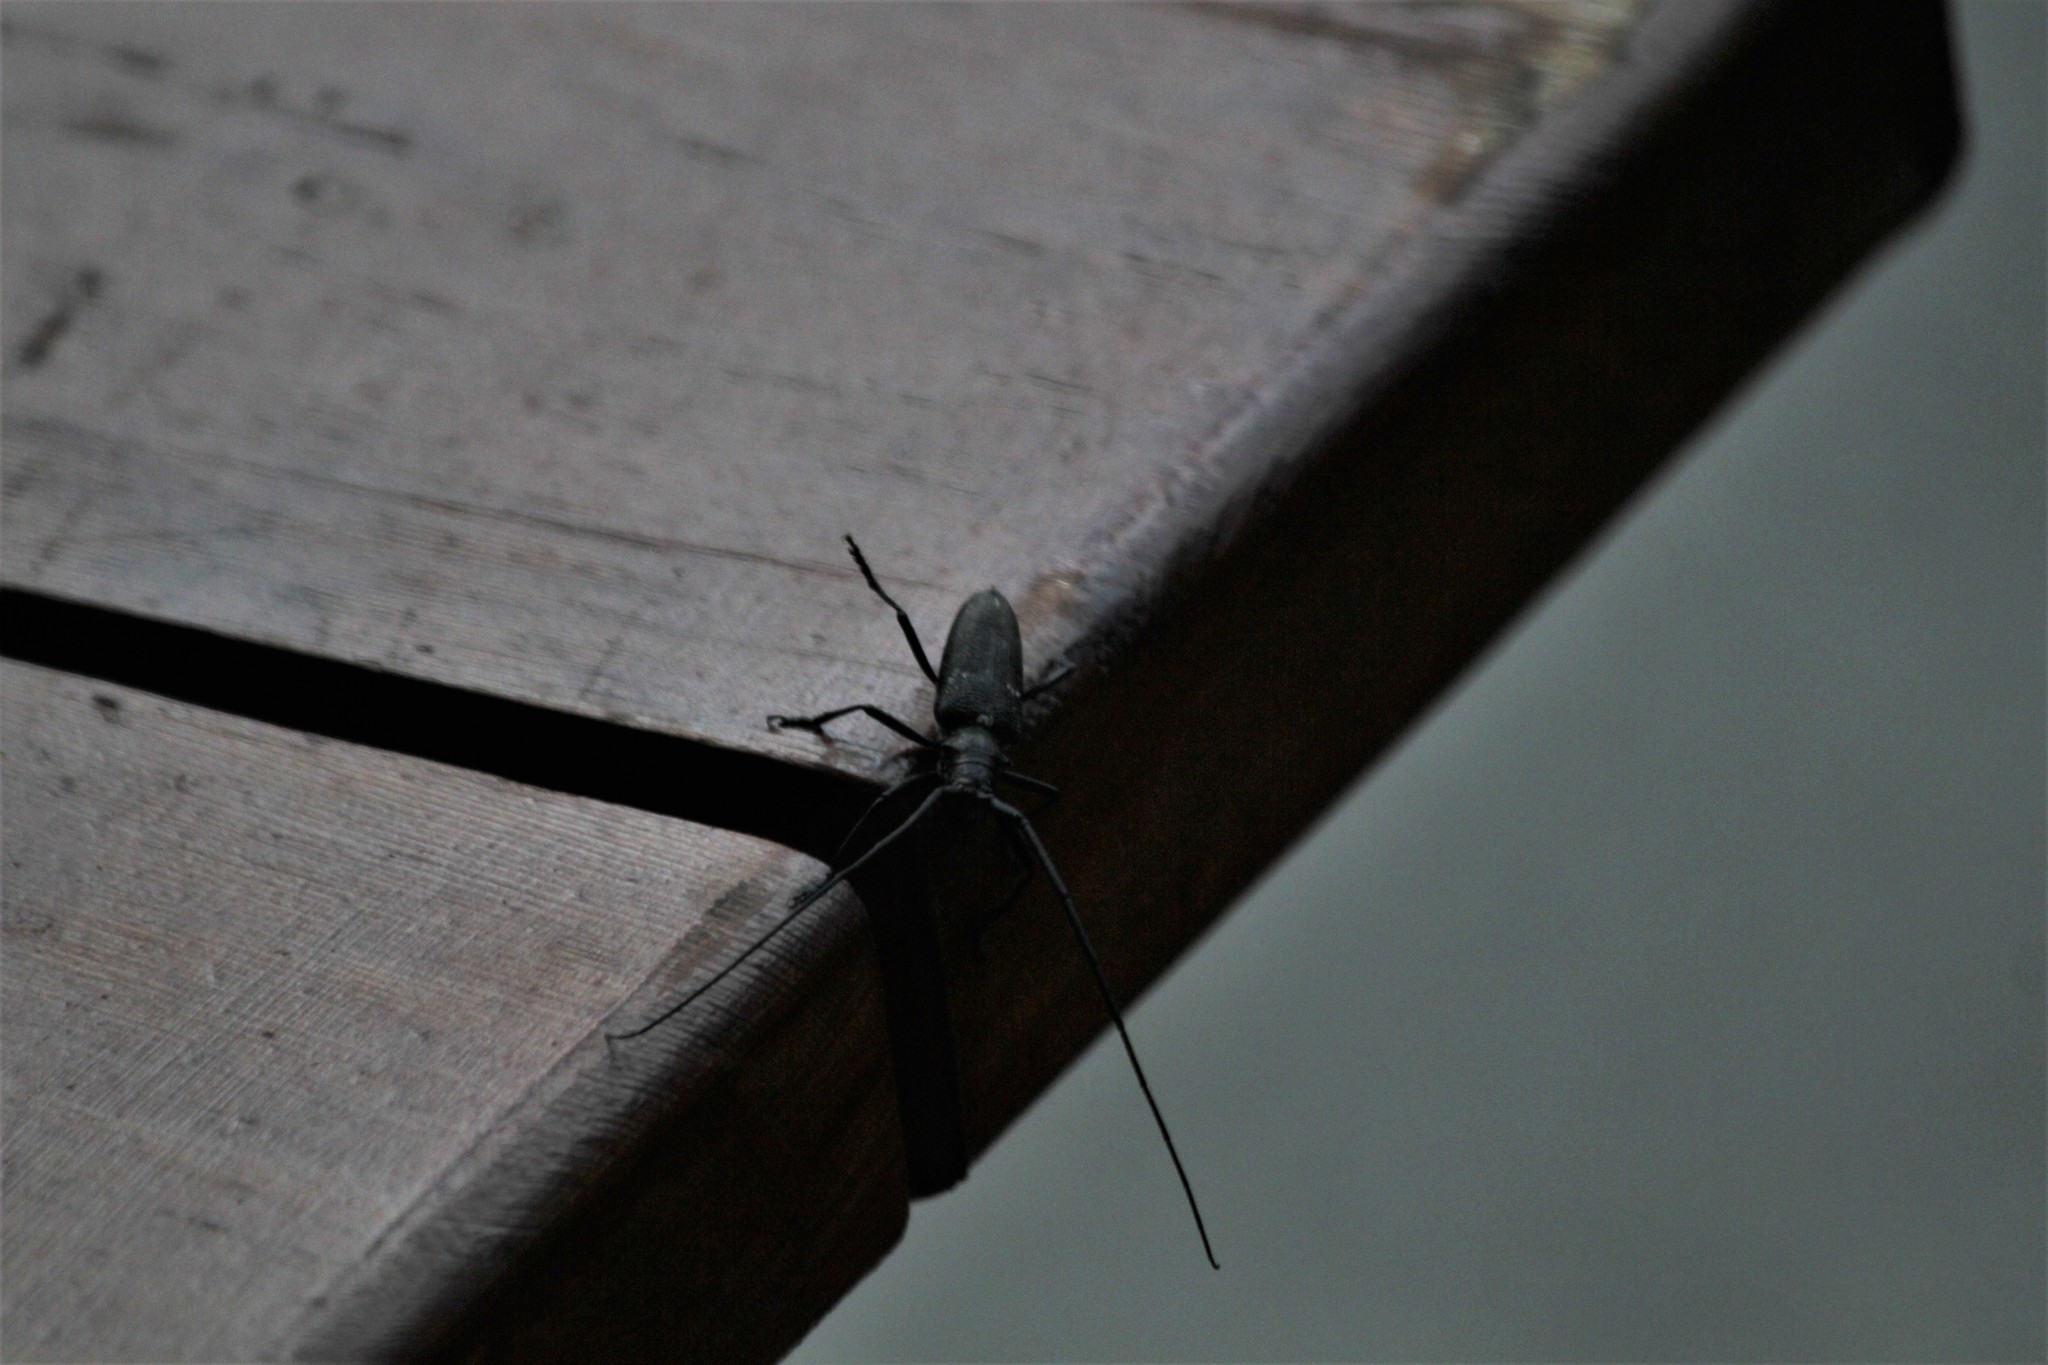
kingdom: Animalia
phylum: Arthropoda
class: Insecta
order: Coleoptera
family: Cerambycidae
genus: Monochamus
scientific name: Monochamus scutellatus
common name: White-spotted sawyer beetle
